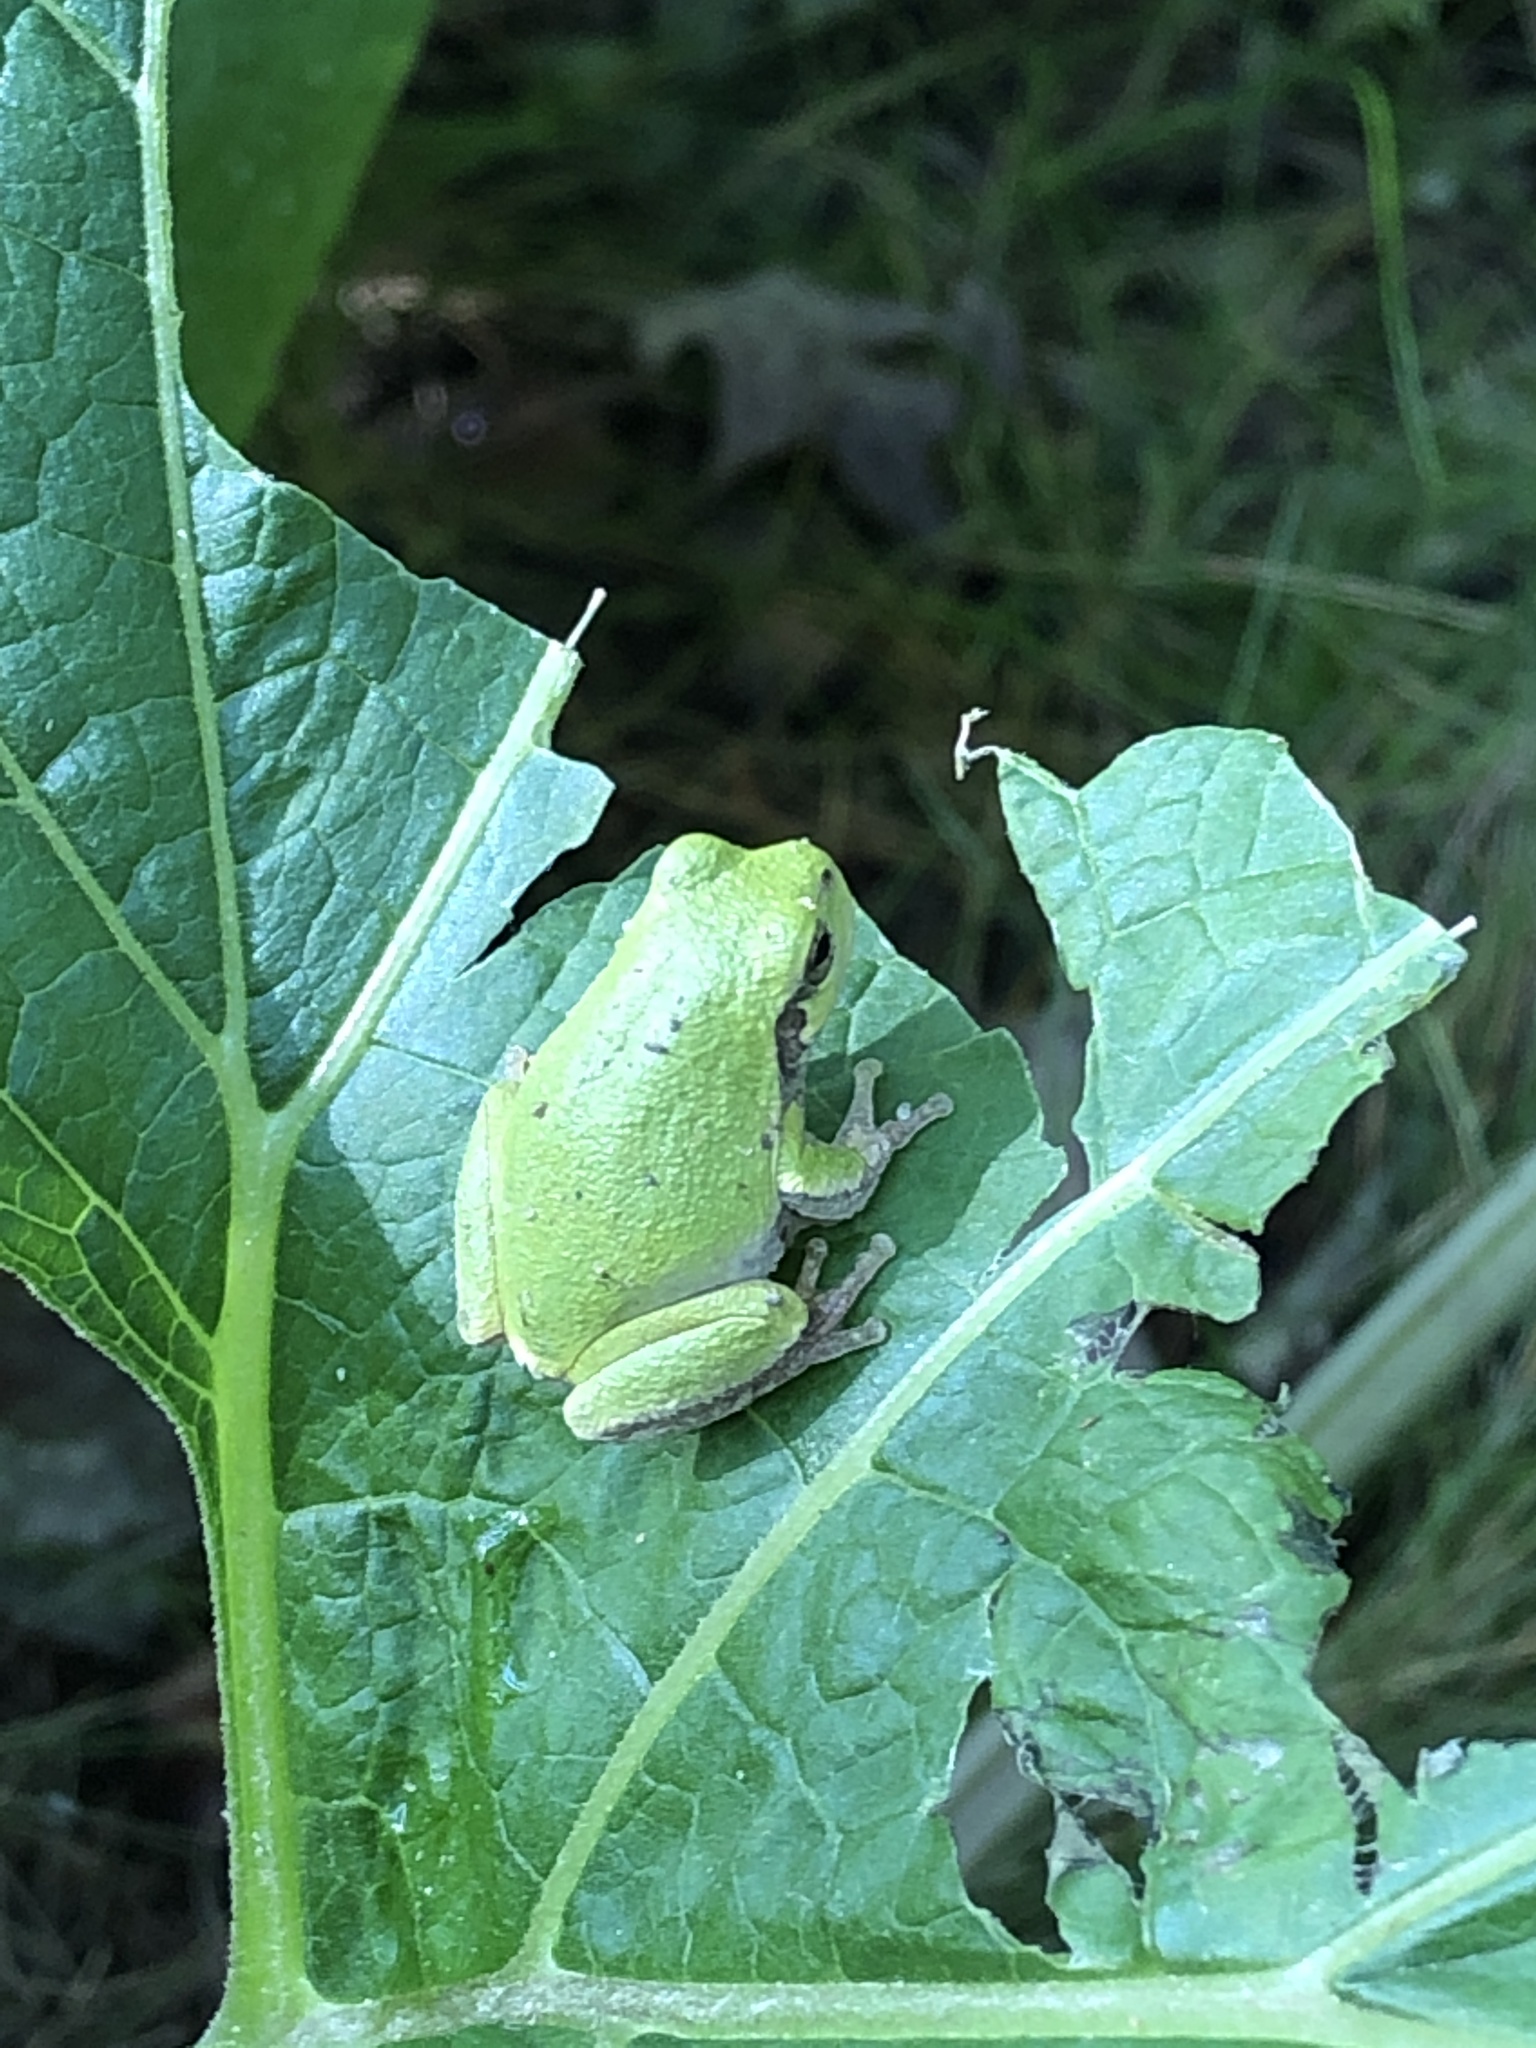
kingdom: Animalia
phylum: Chordata
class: Amphibia
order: Anura
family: Hylidae
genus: Hyla
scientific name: Hyla
